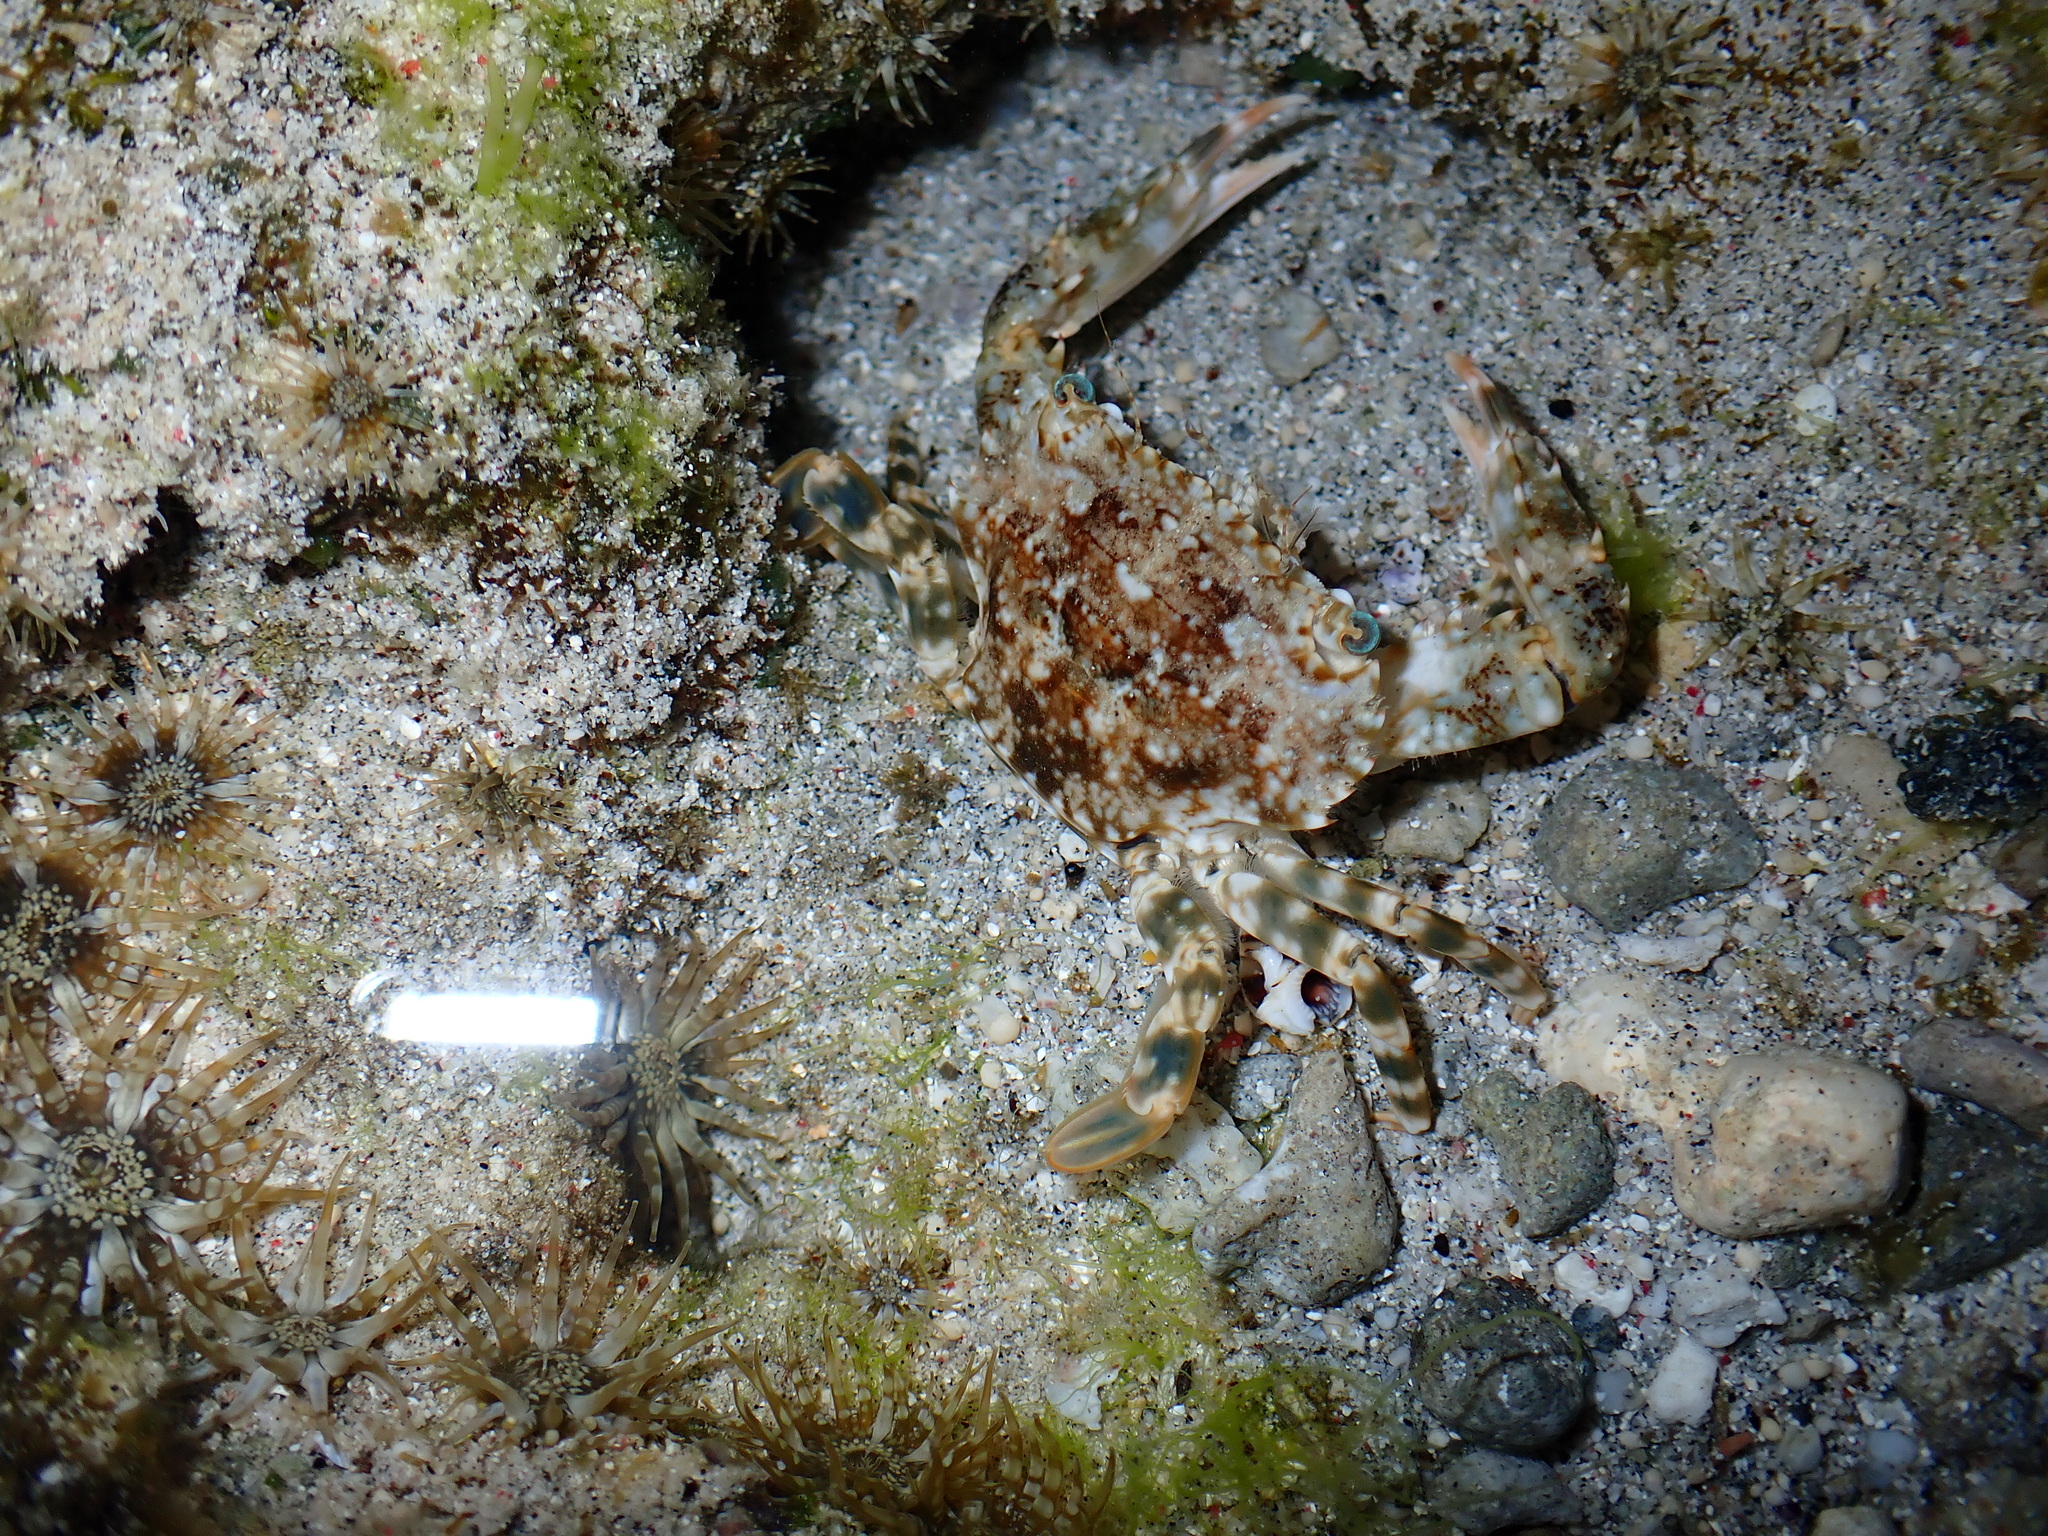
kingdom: Animalia
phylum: Arthropoda
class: Malacostraca
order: Decapoda
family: Portunidae
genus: Thalamita
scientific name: Thalamita holthuisi
